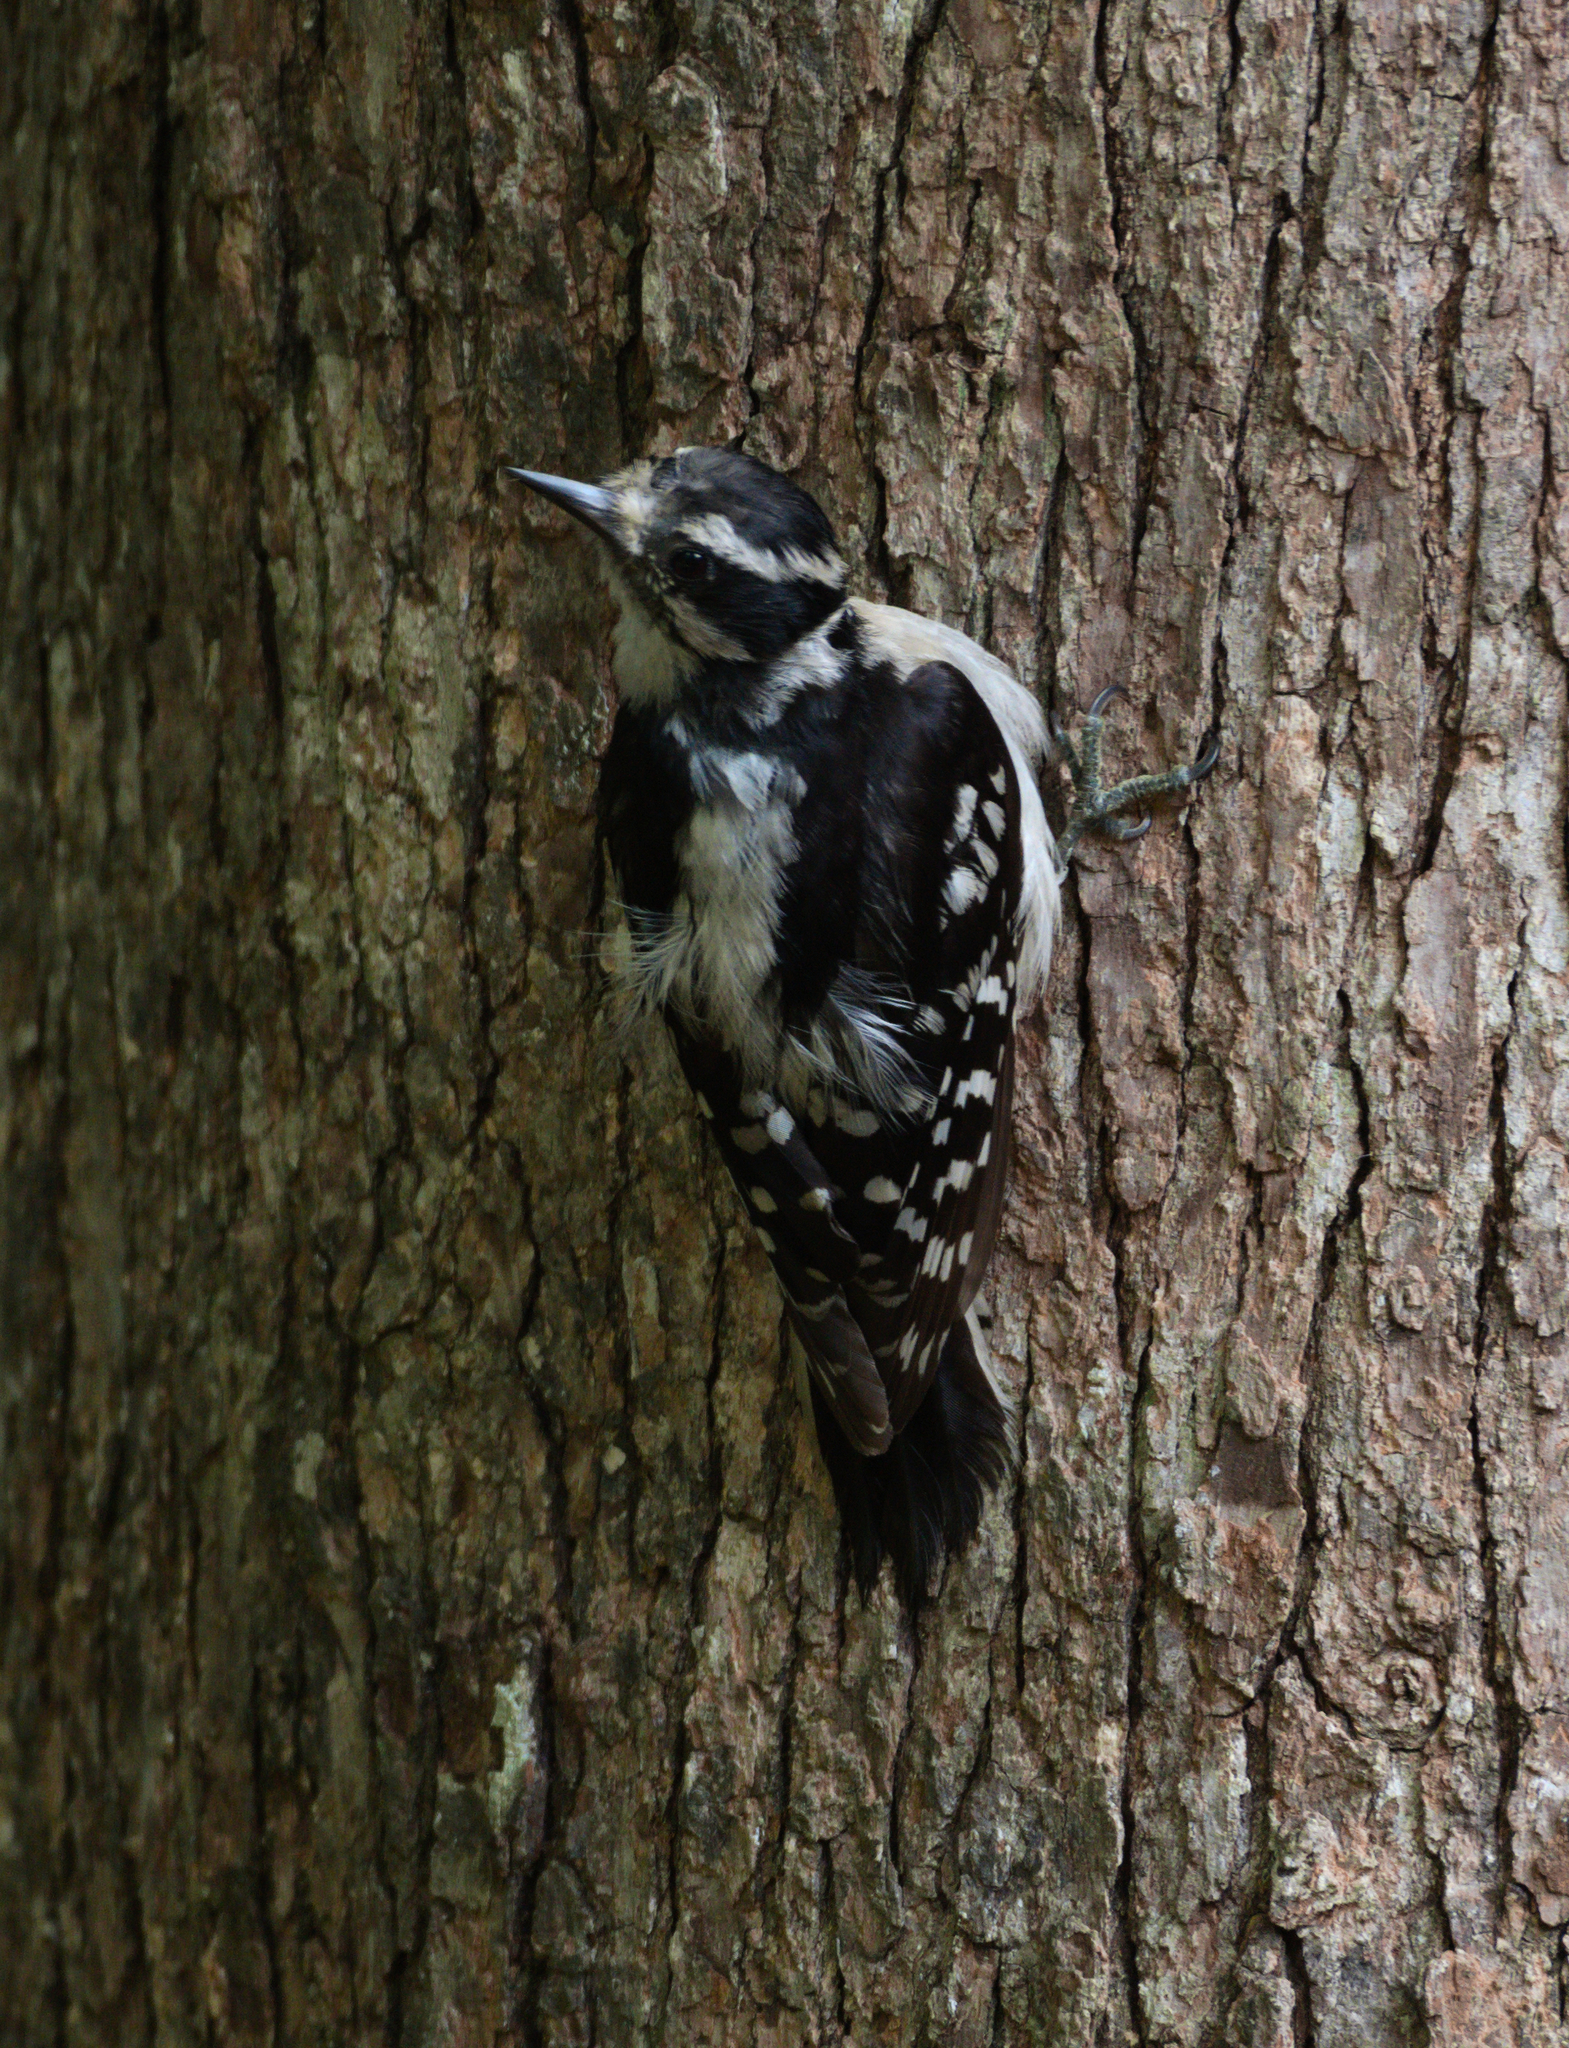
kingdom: Animalia
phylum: Chordata
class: Aves
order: Piciformes
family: Picidae
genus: Dryobates
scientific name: Dryobates pubescens
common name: Downy woodpecker
